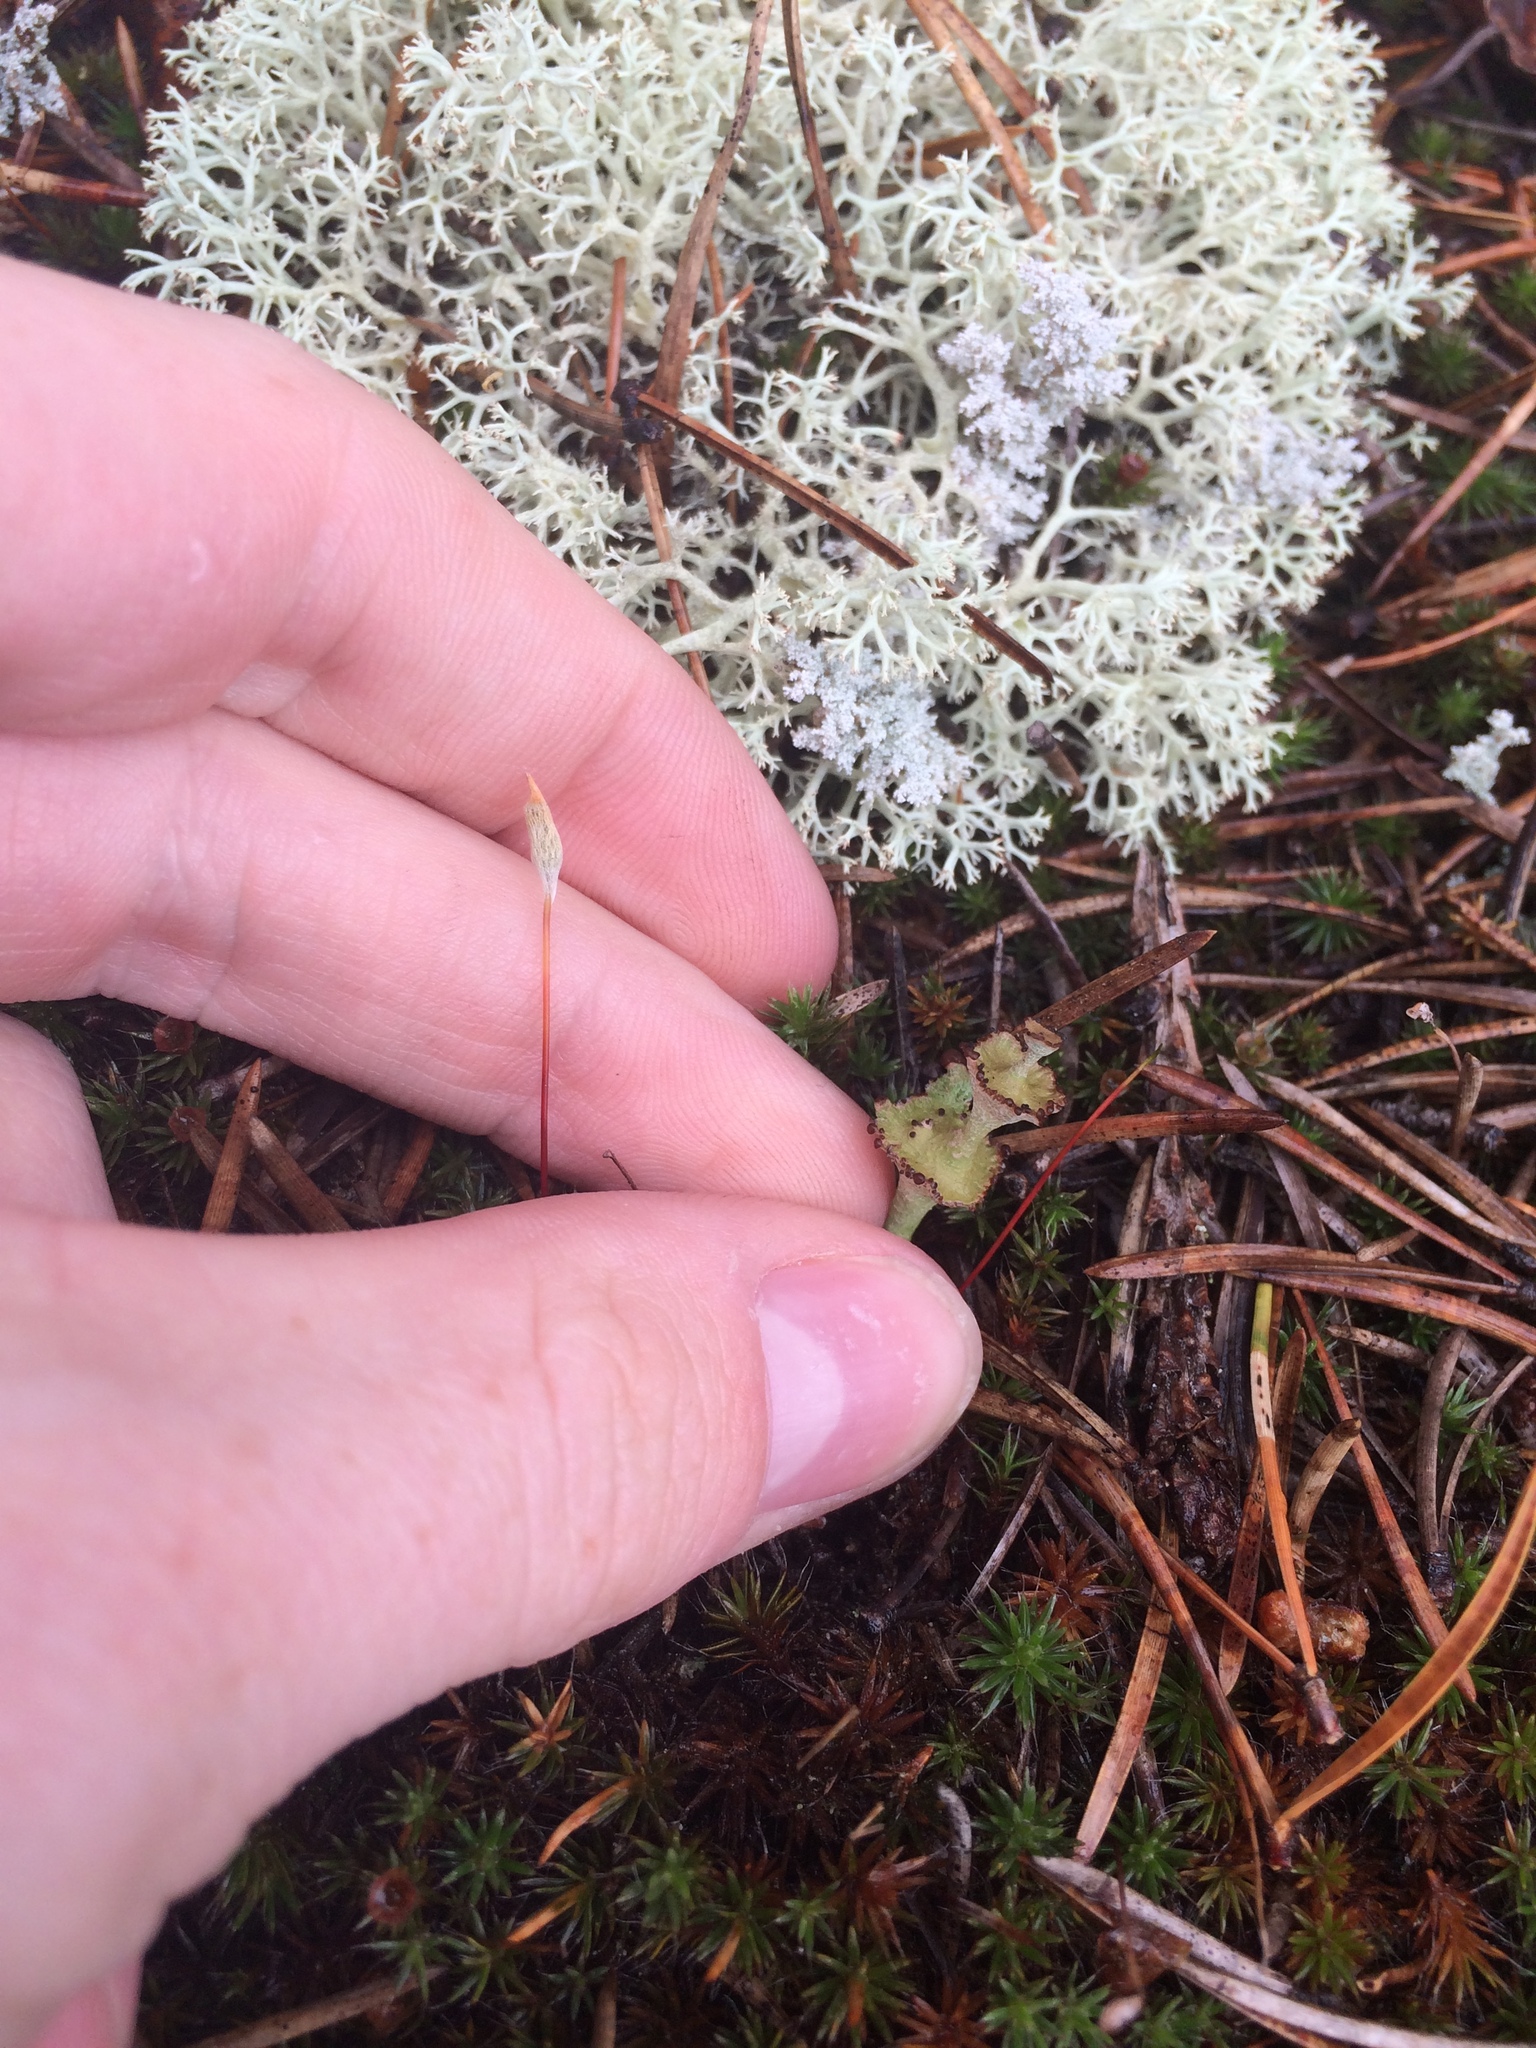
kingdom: Fungi
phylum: Ascomycota
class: Lecanoromycetes
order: Lecanorales
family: Cladoniaceae
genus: Cladonia
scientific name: Cladonia cervicornis
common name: Browned pixie-cup lichen
